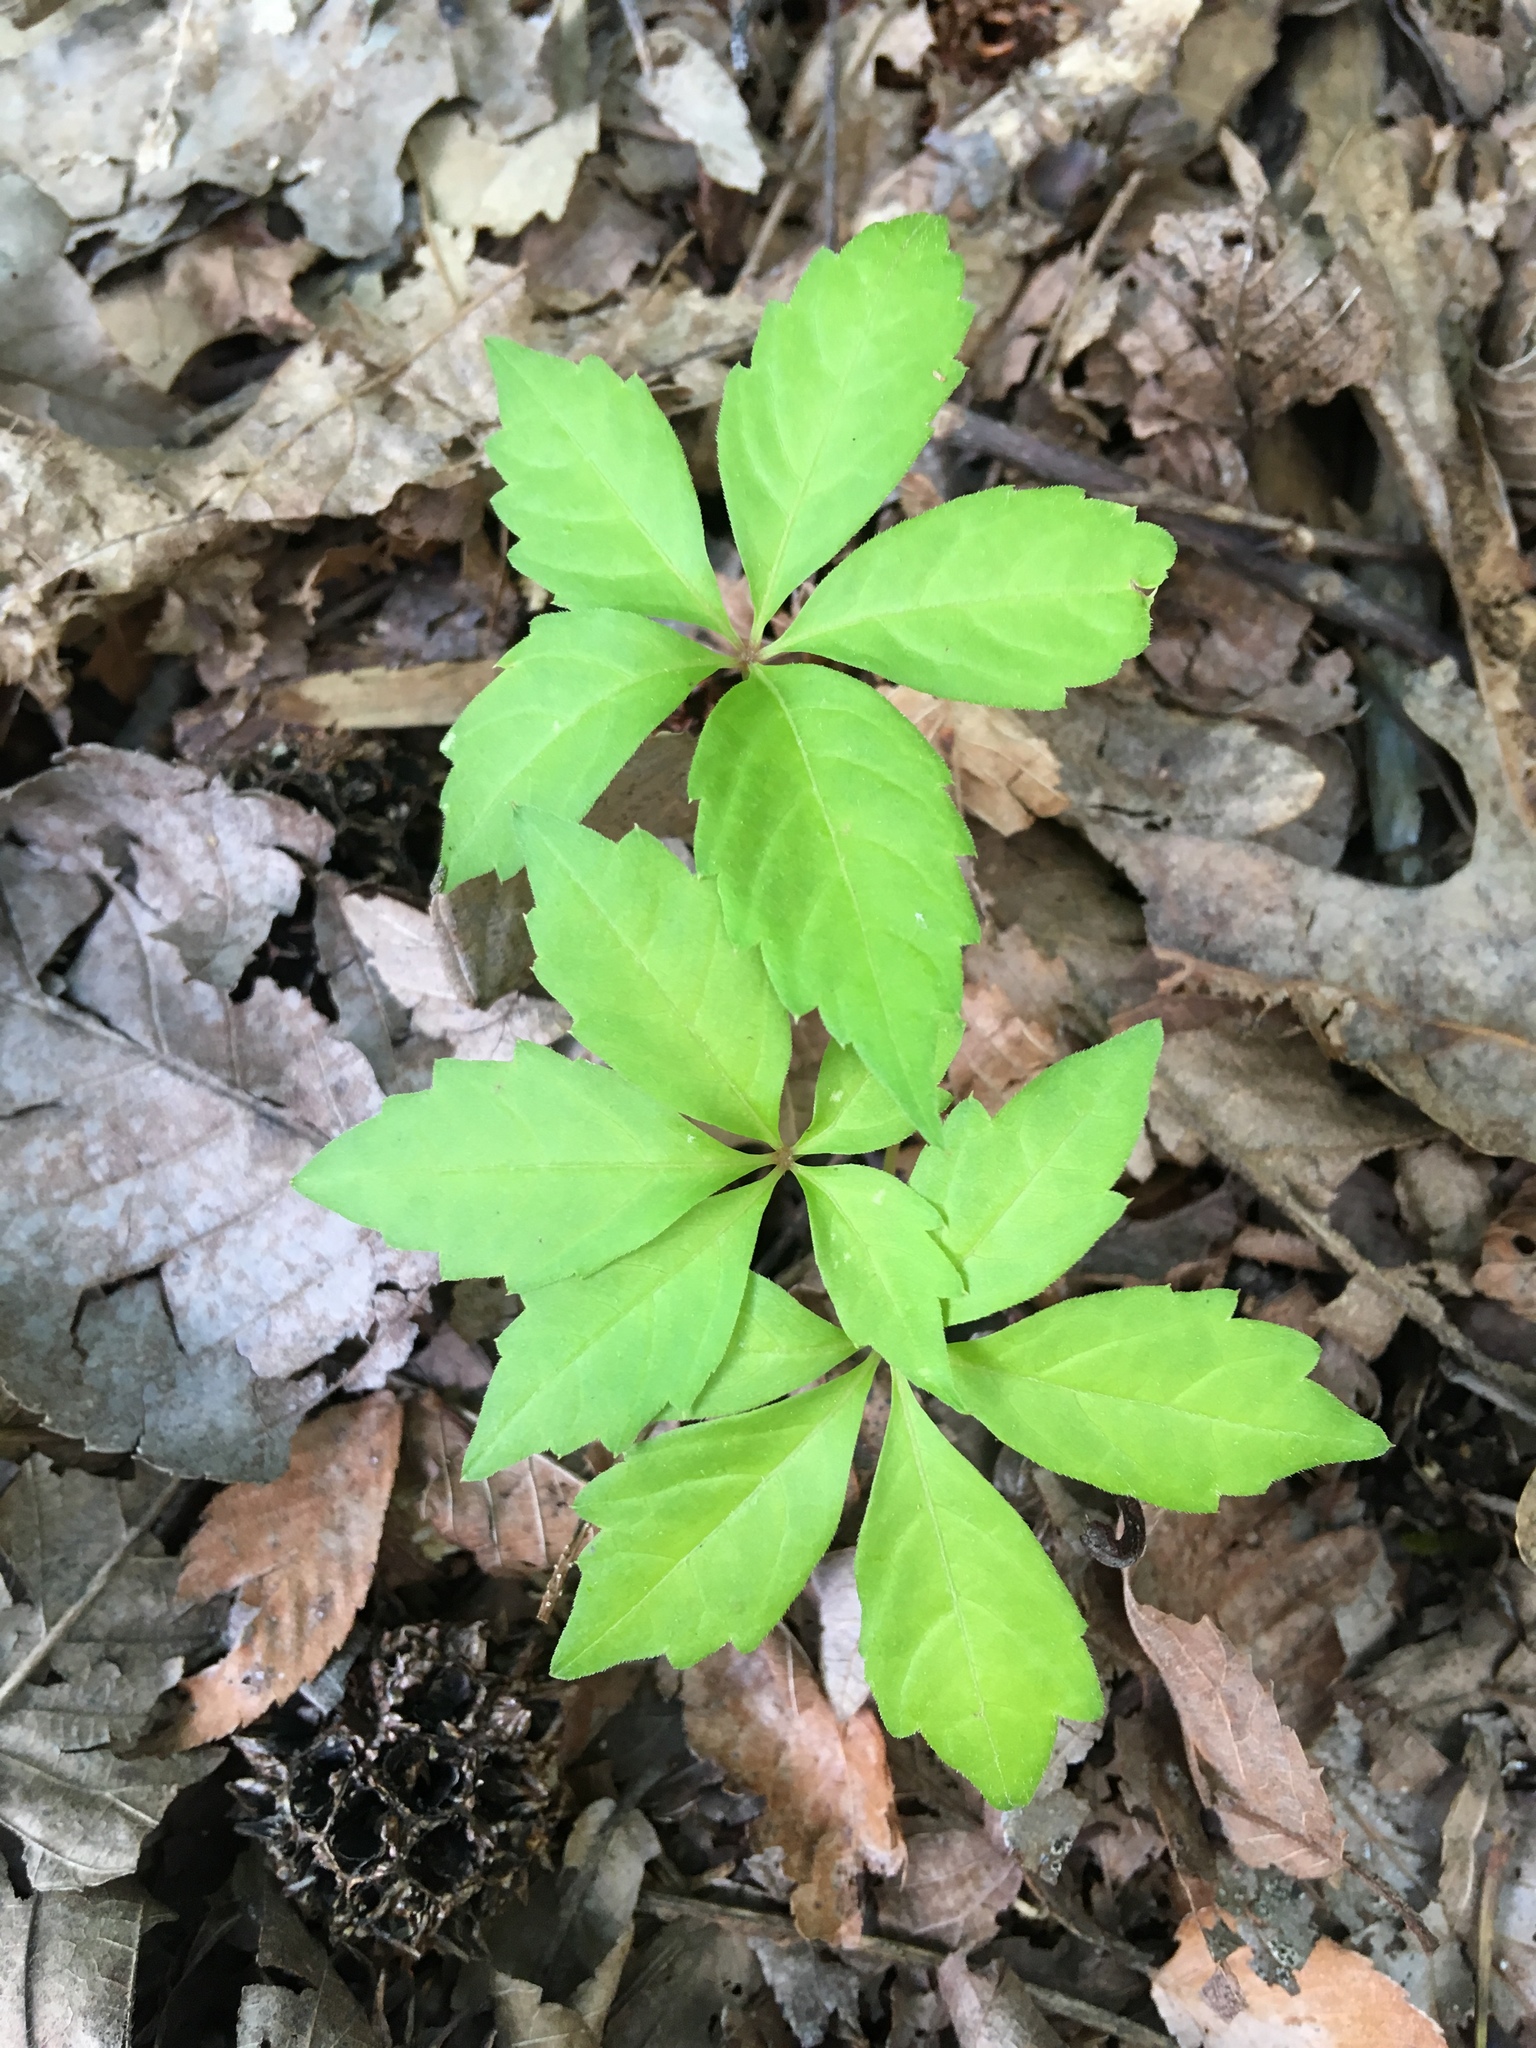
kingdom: Plantae
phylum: Tracheophyta
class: Magnoliopsida
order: Vitales
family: Vitaceae
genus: Parthenocissus
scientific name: Parthenocissus quinquefolia
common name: Virginia-creeper
